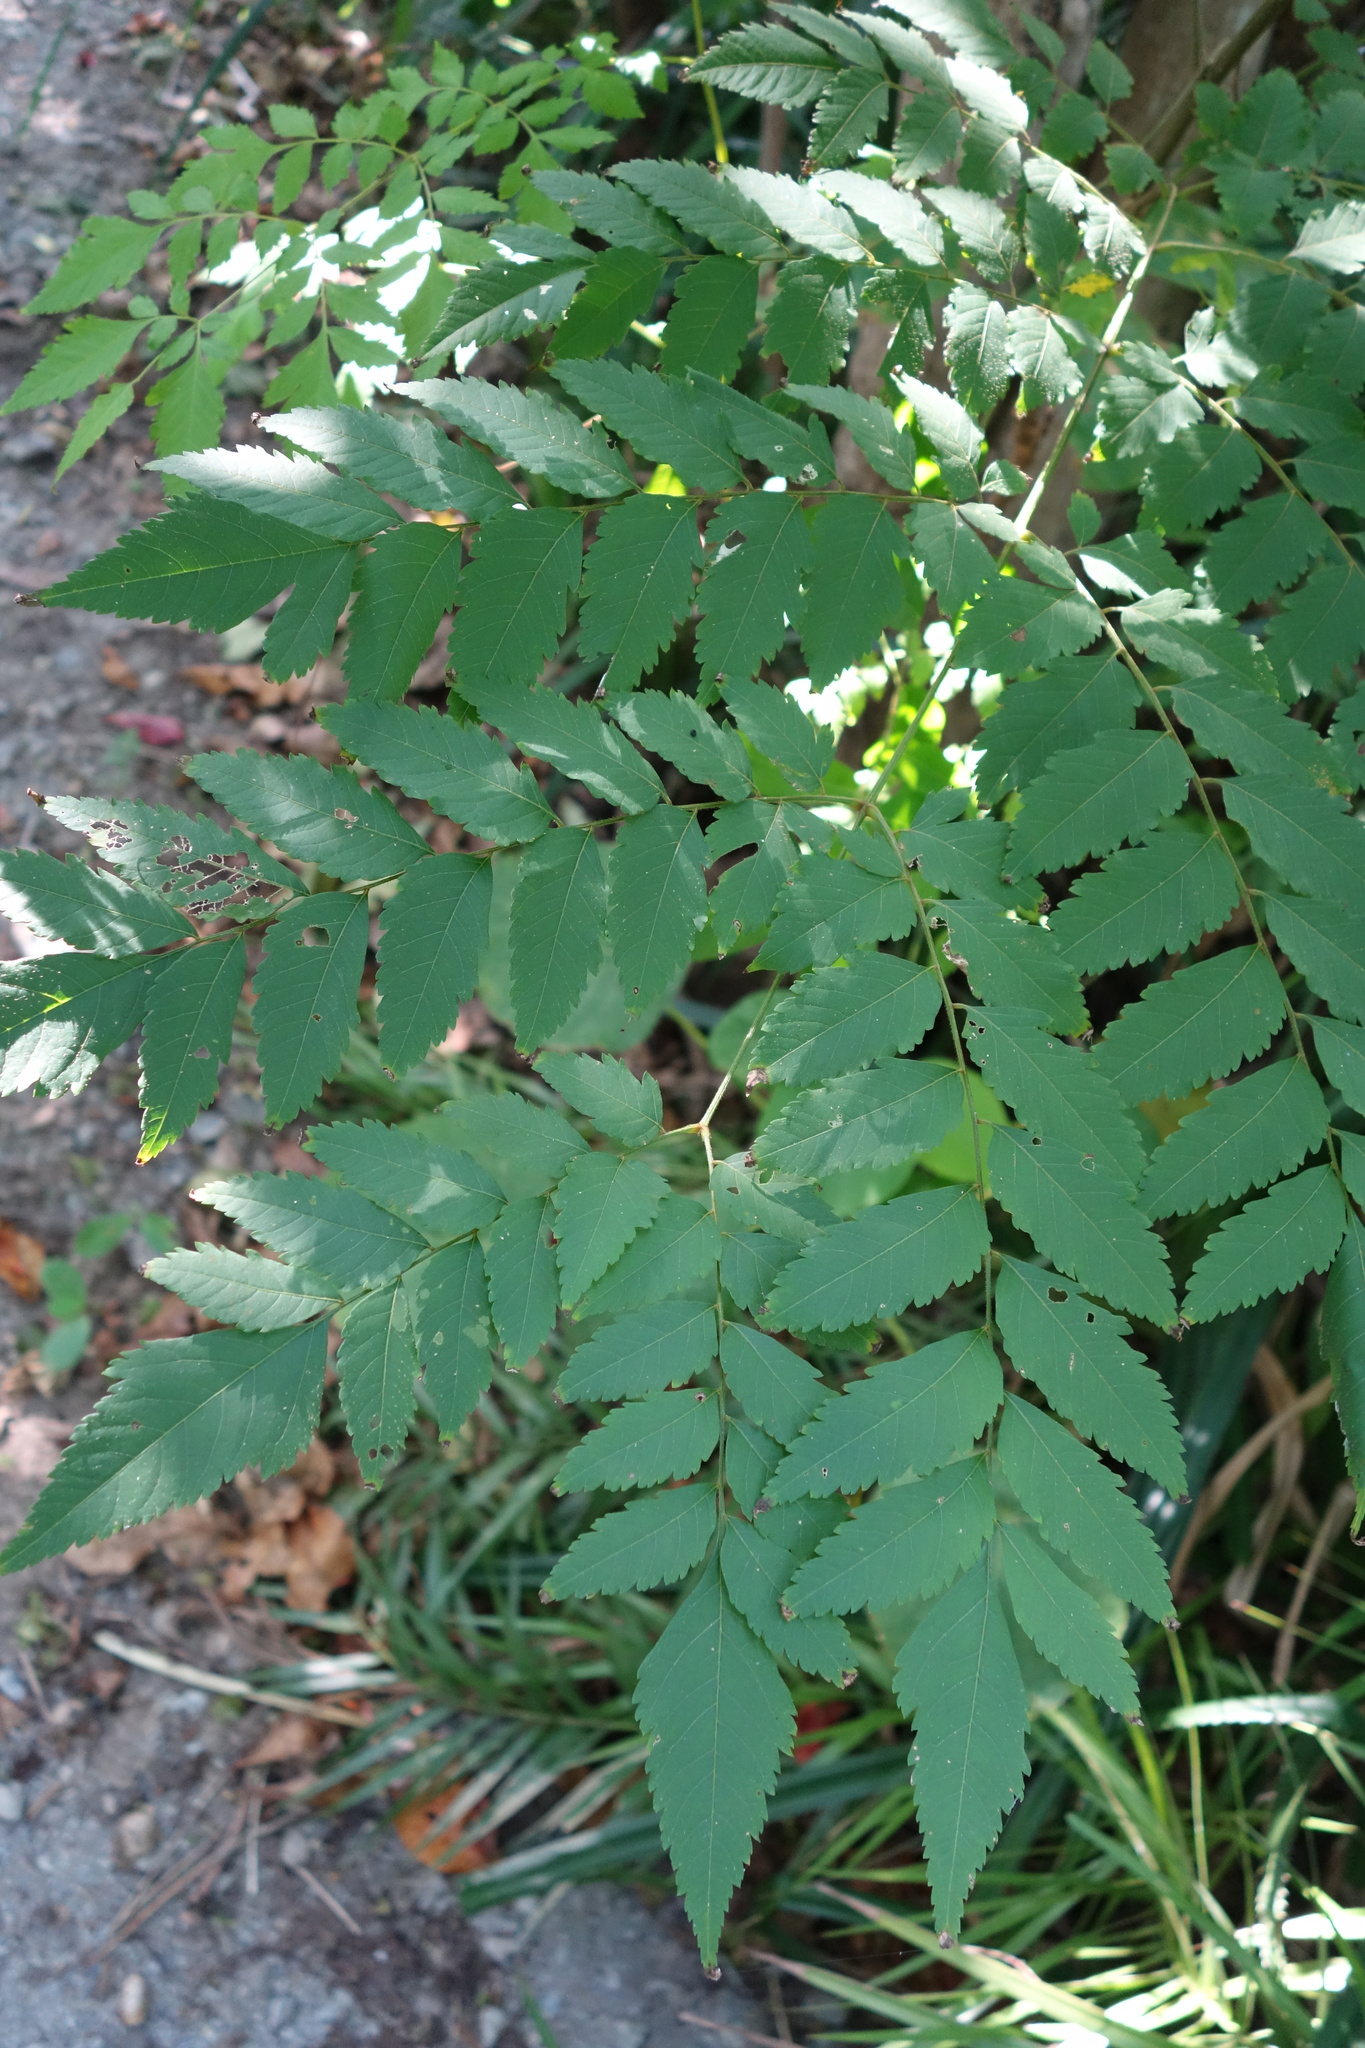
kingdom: Plantae
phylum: Tracheophyta
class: Magnoliopsida
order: Sapindales
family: Sapindaceae
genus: Koelreuteria
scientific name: Koelreuteria elegans
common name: Chinese flame tree
